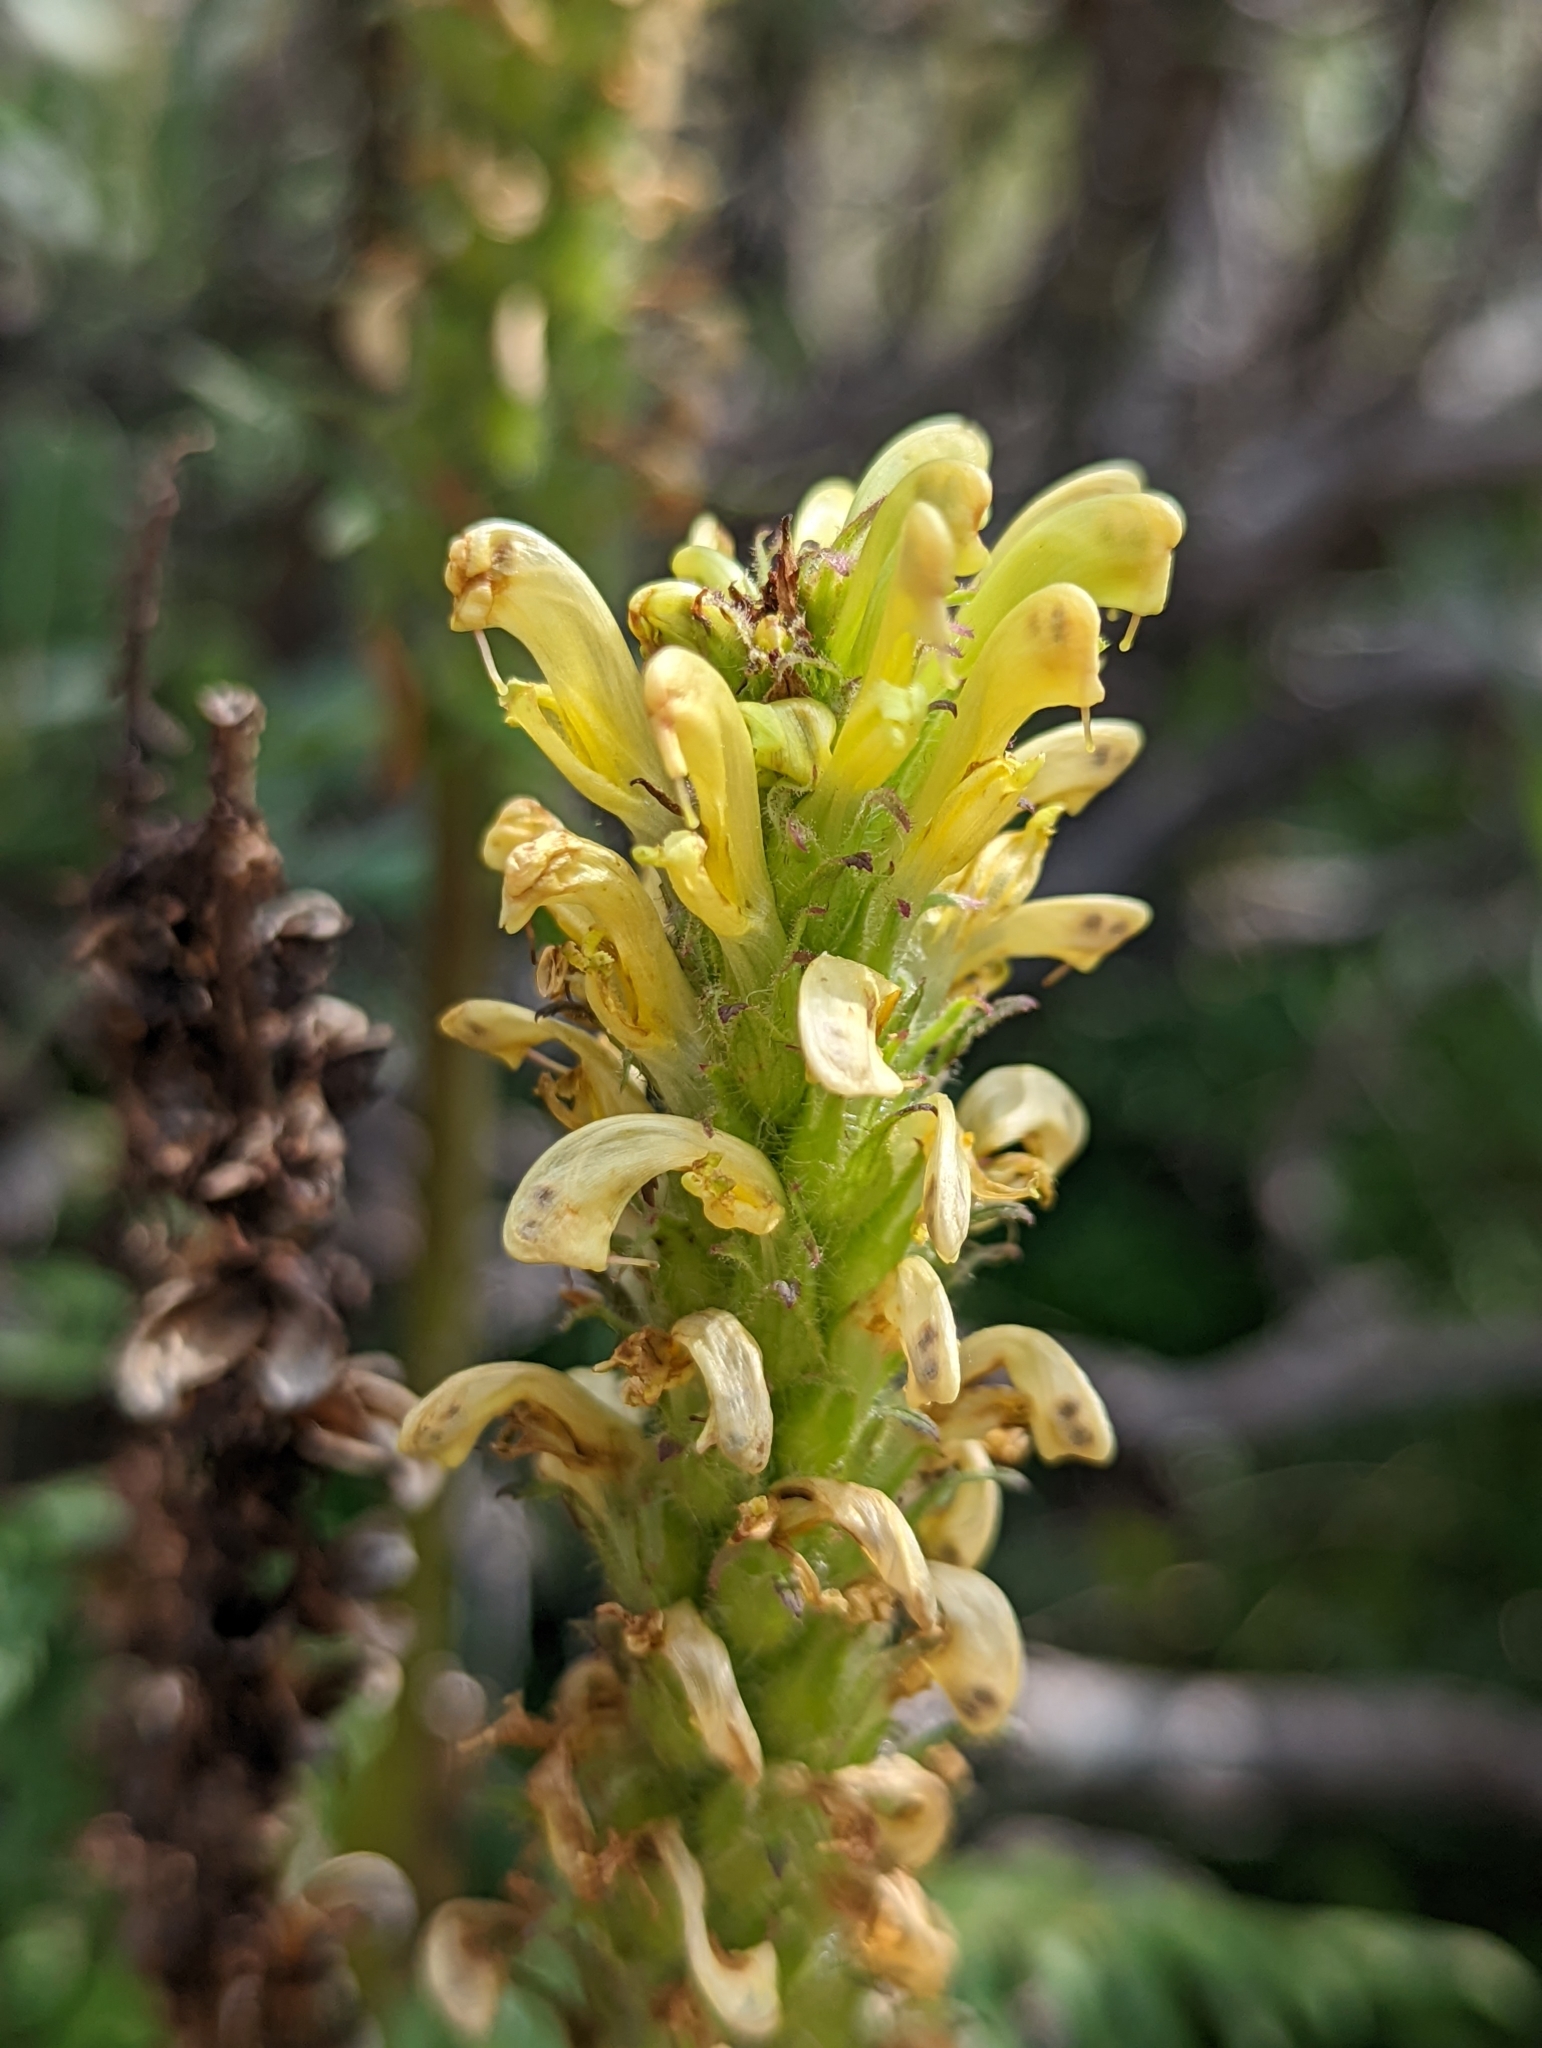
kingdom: Plantae
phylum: Tracheophyta
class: Magnoliopsida
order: Lamiales
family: Orobanchaceae
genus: Pedicularis
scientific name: Pedicularis bracteosa
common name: Bracted lousewort
